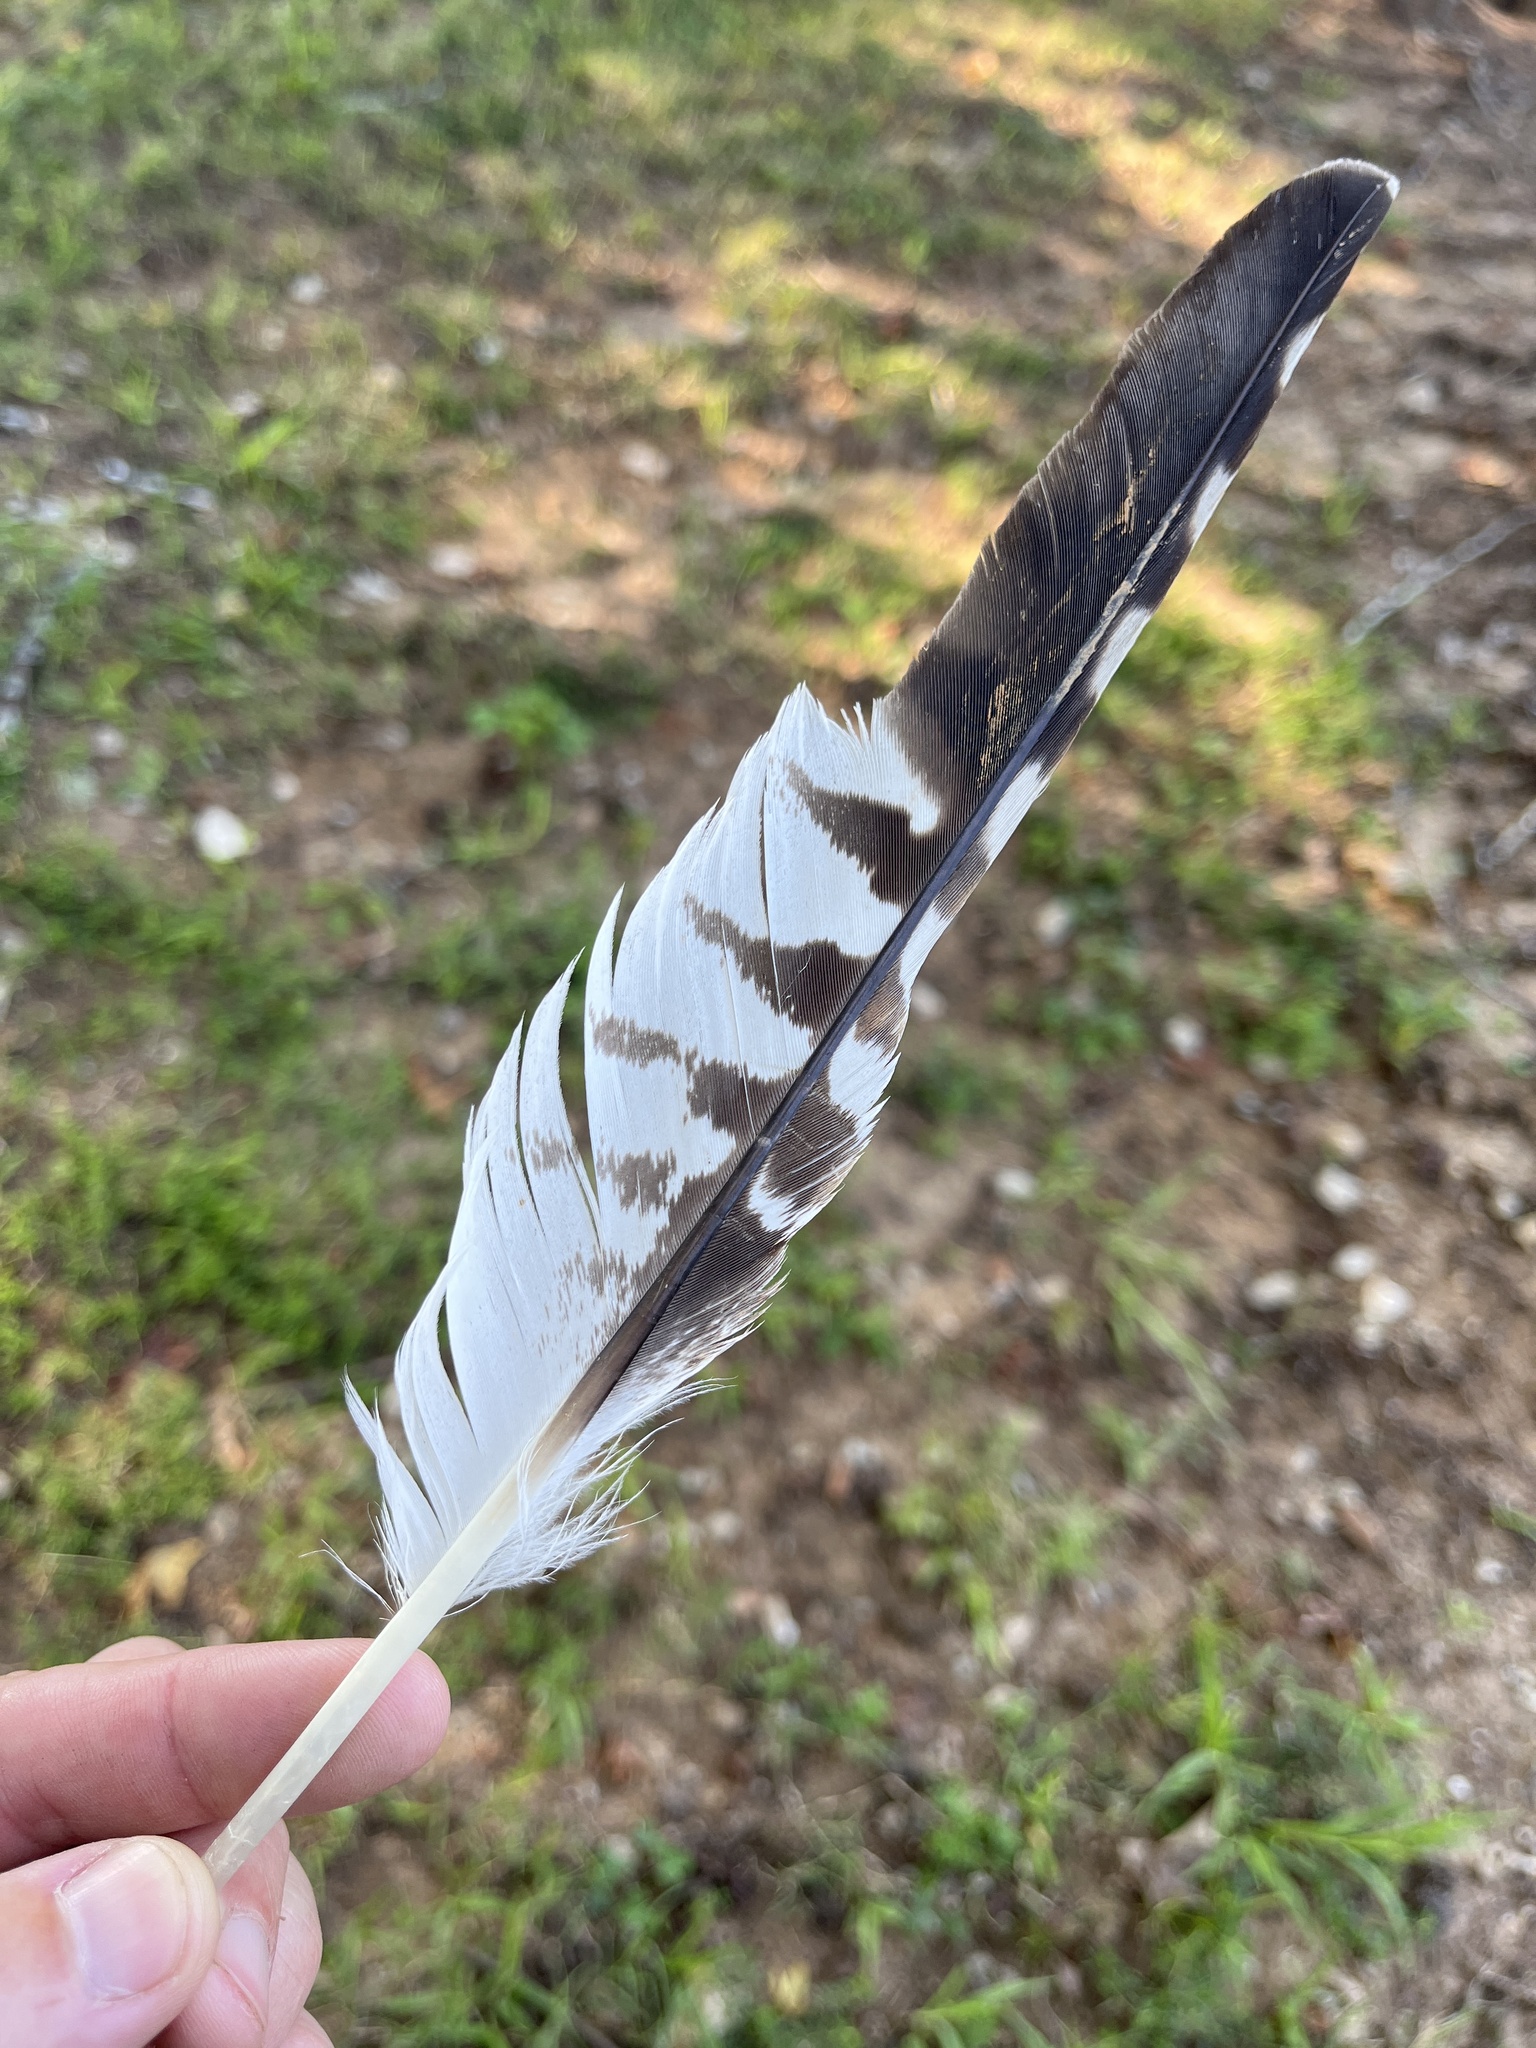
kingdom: Animalia
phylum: Chordata
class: Aves
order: Accipitriformes
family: Accipitridae
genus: Buteo
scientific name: Buteo lineatus
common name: Red-shouldered hawk
